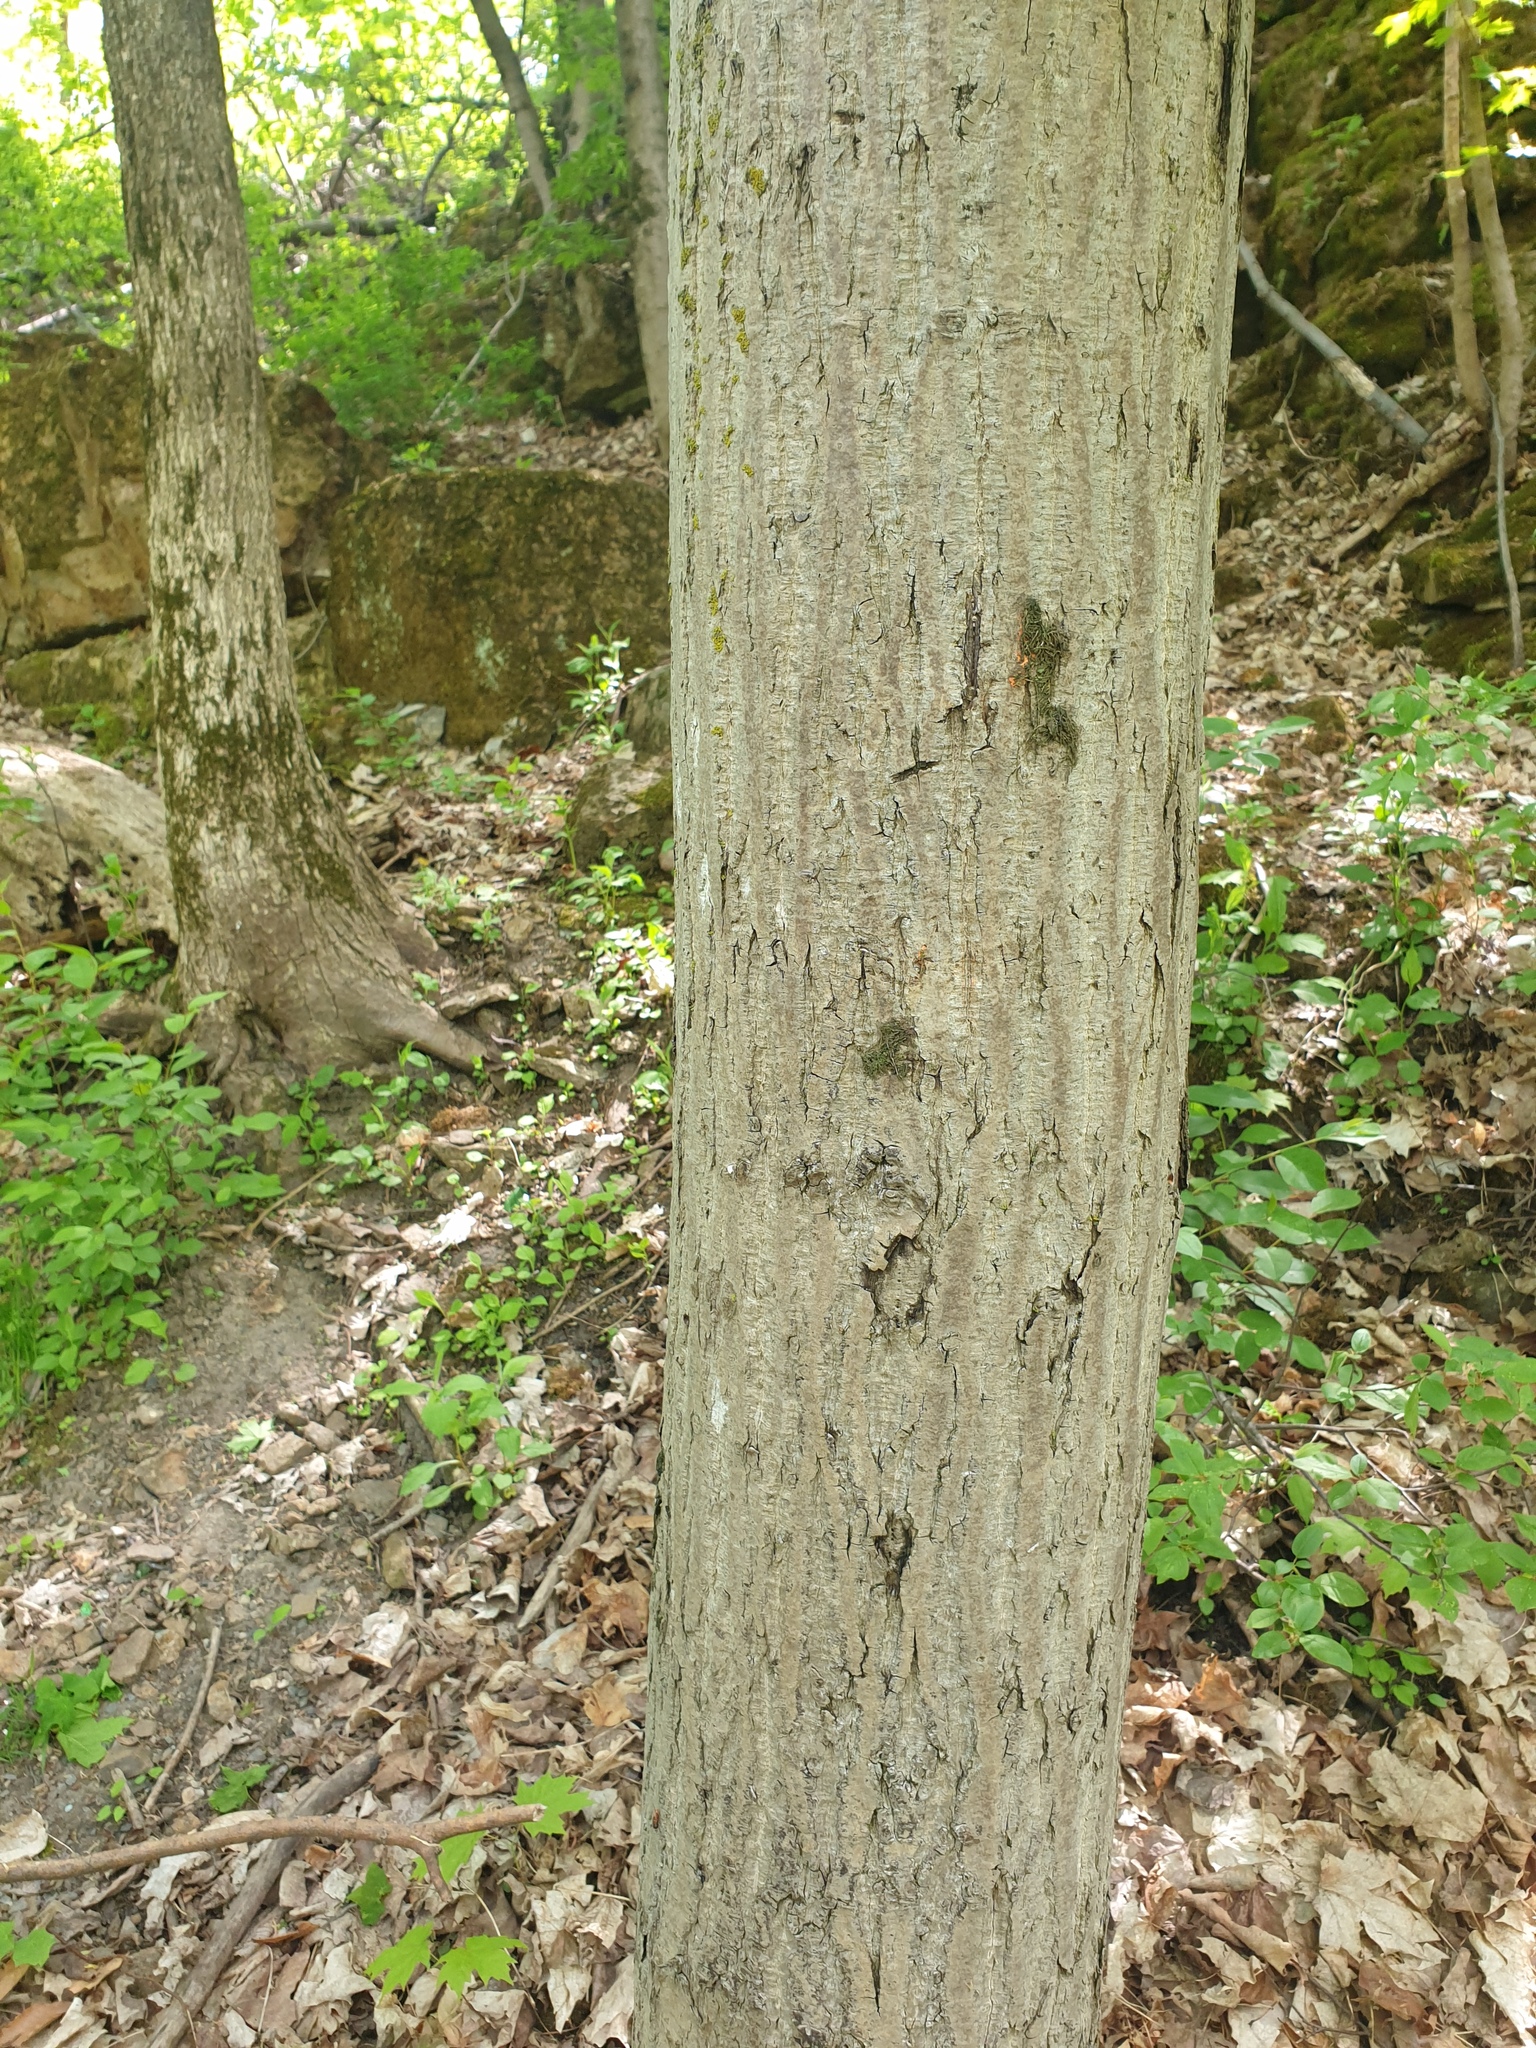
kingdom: Plantae
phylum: Tracheophyta
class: Magnoliopsida
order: Fagales
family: Juglandaceae
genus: Juglans
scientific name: Juglans cinerea
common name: Butternut
